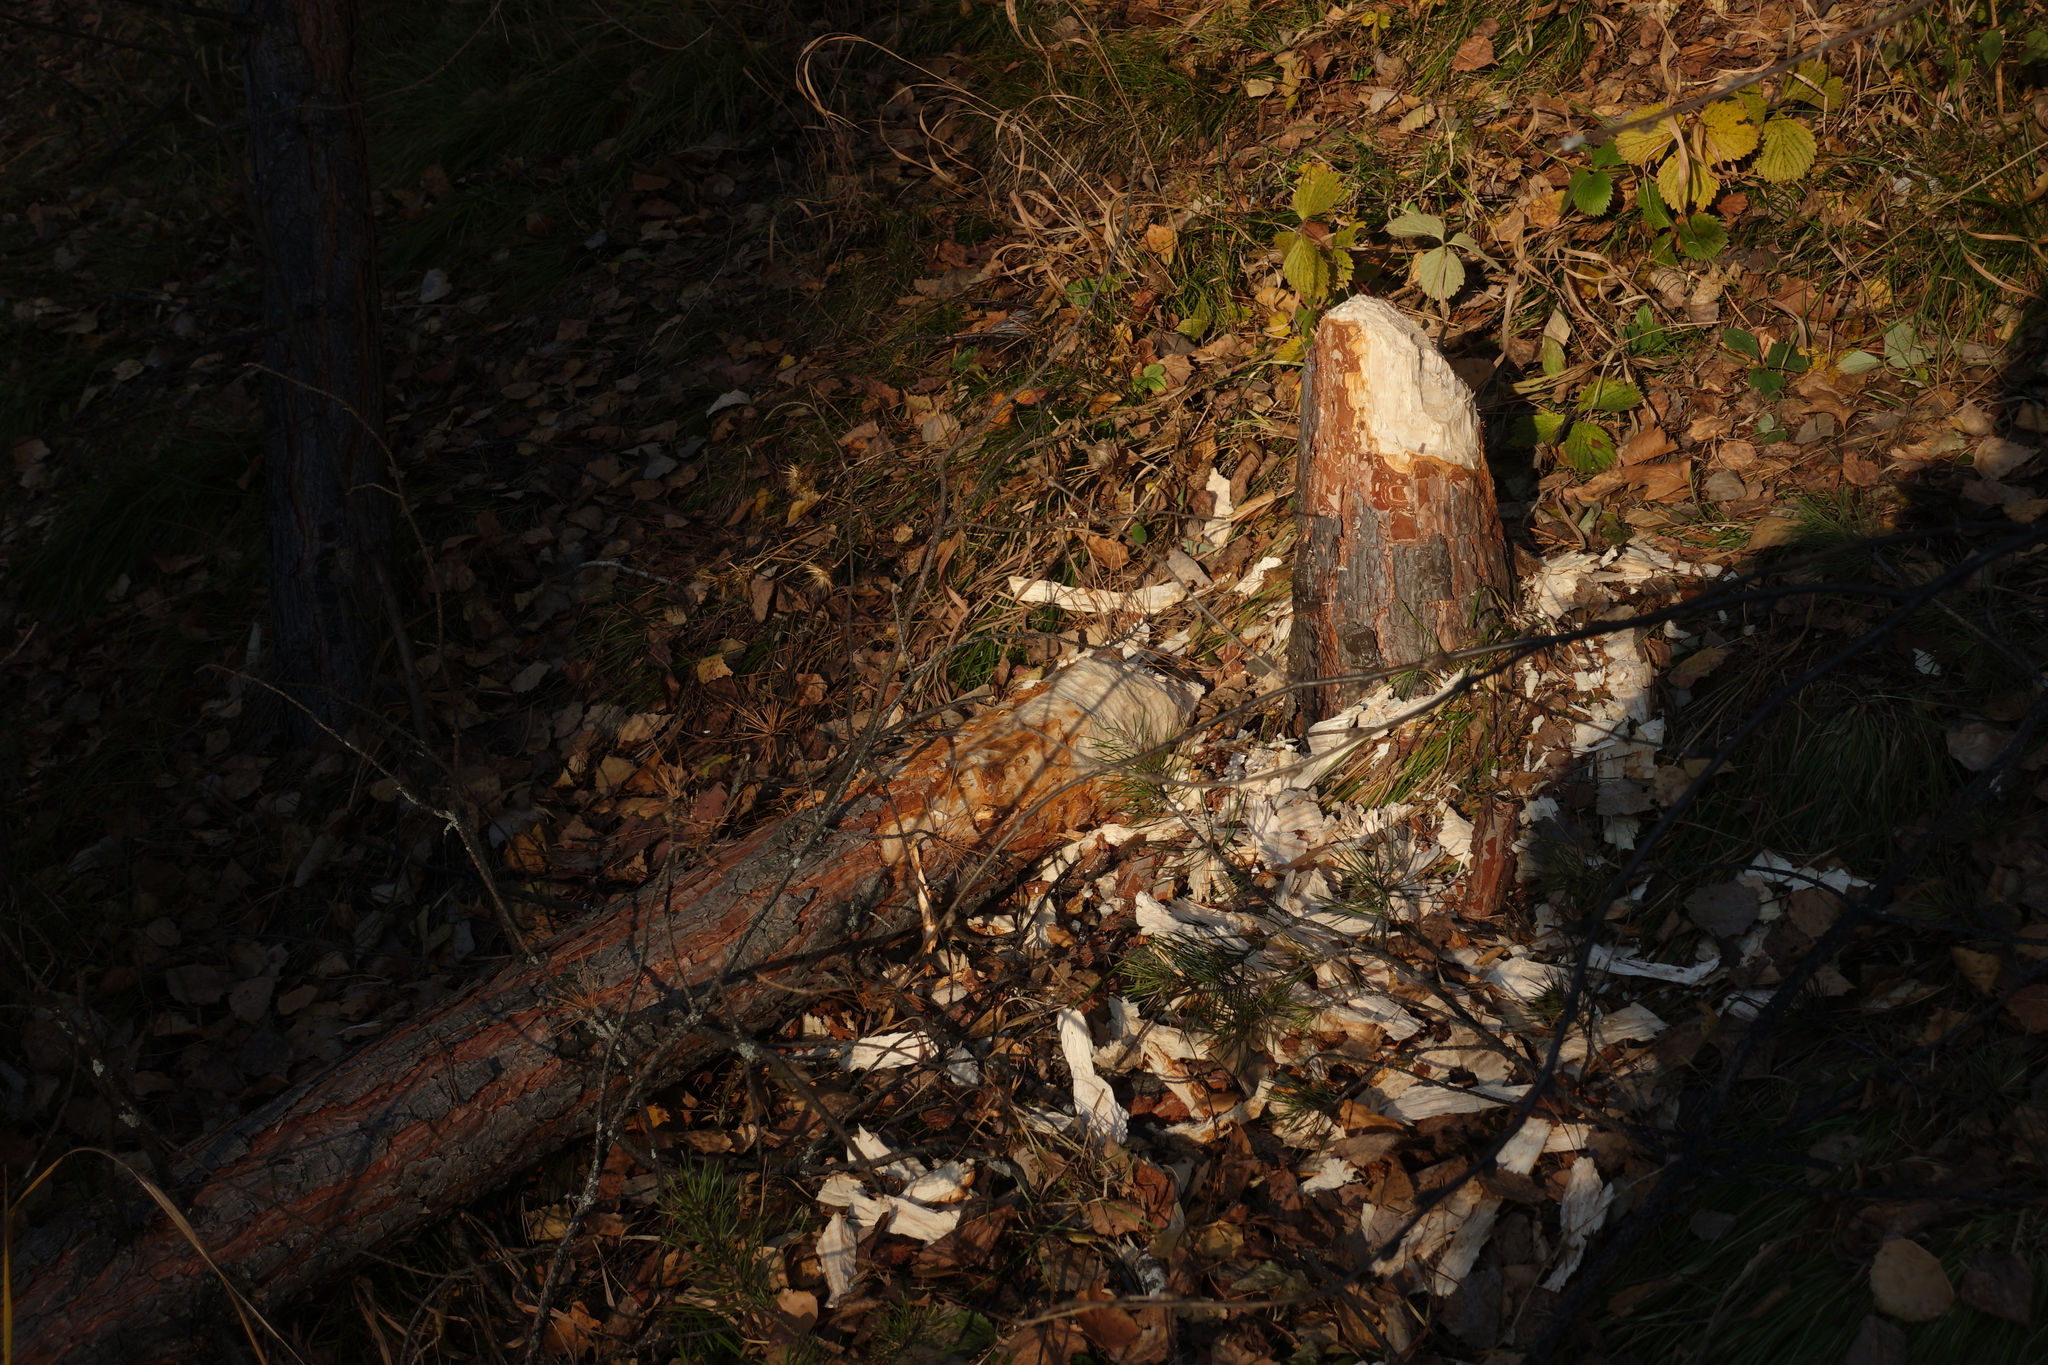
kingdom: Animalia
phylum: Chordata
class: Mammalia
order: Rodentia
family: Castoridae
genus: Castor
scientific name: Castor fiber
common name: Eurasian beaver
